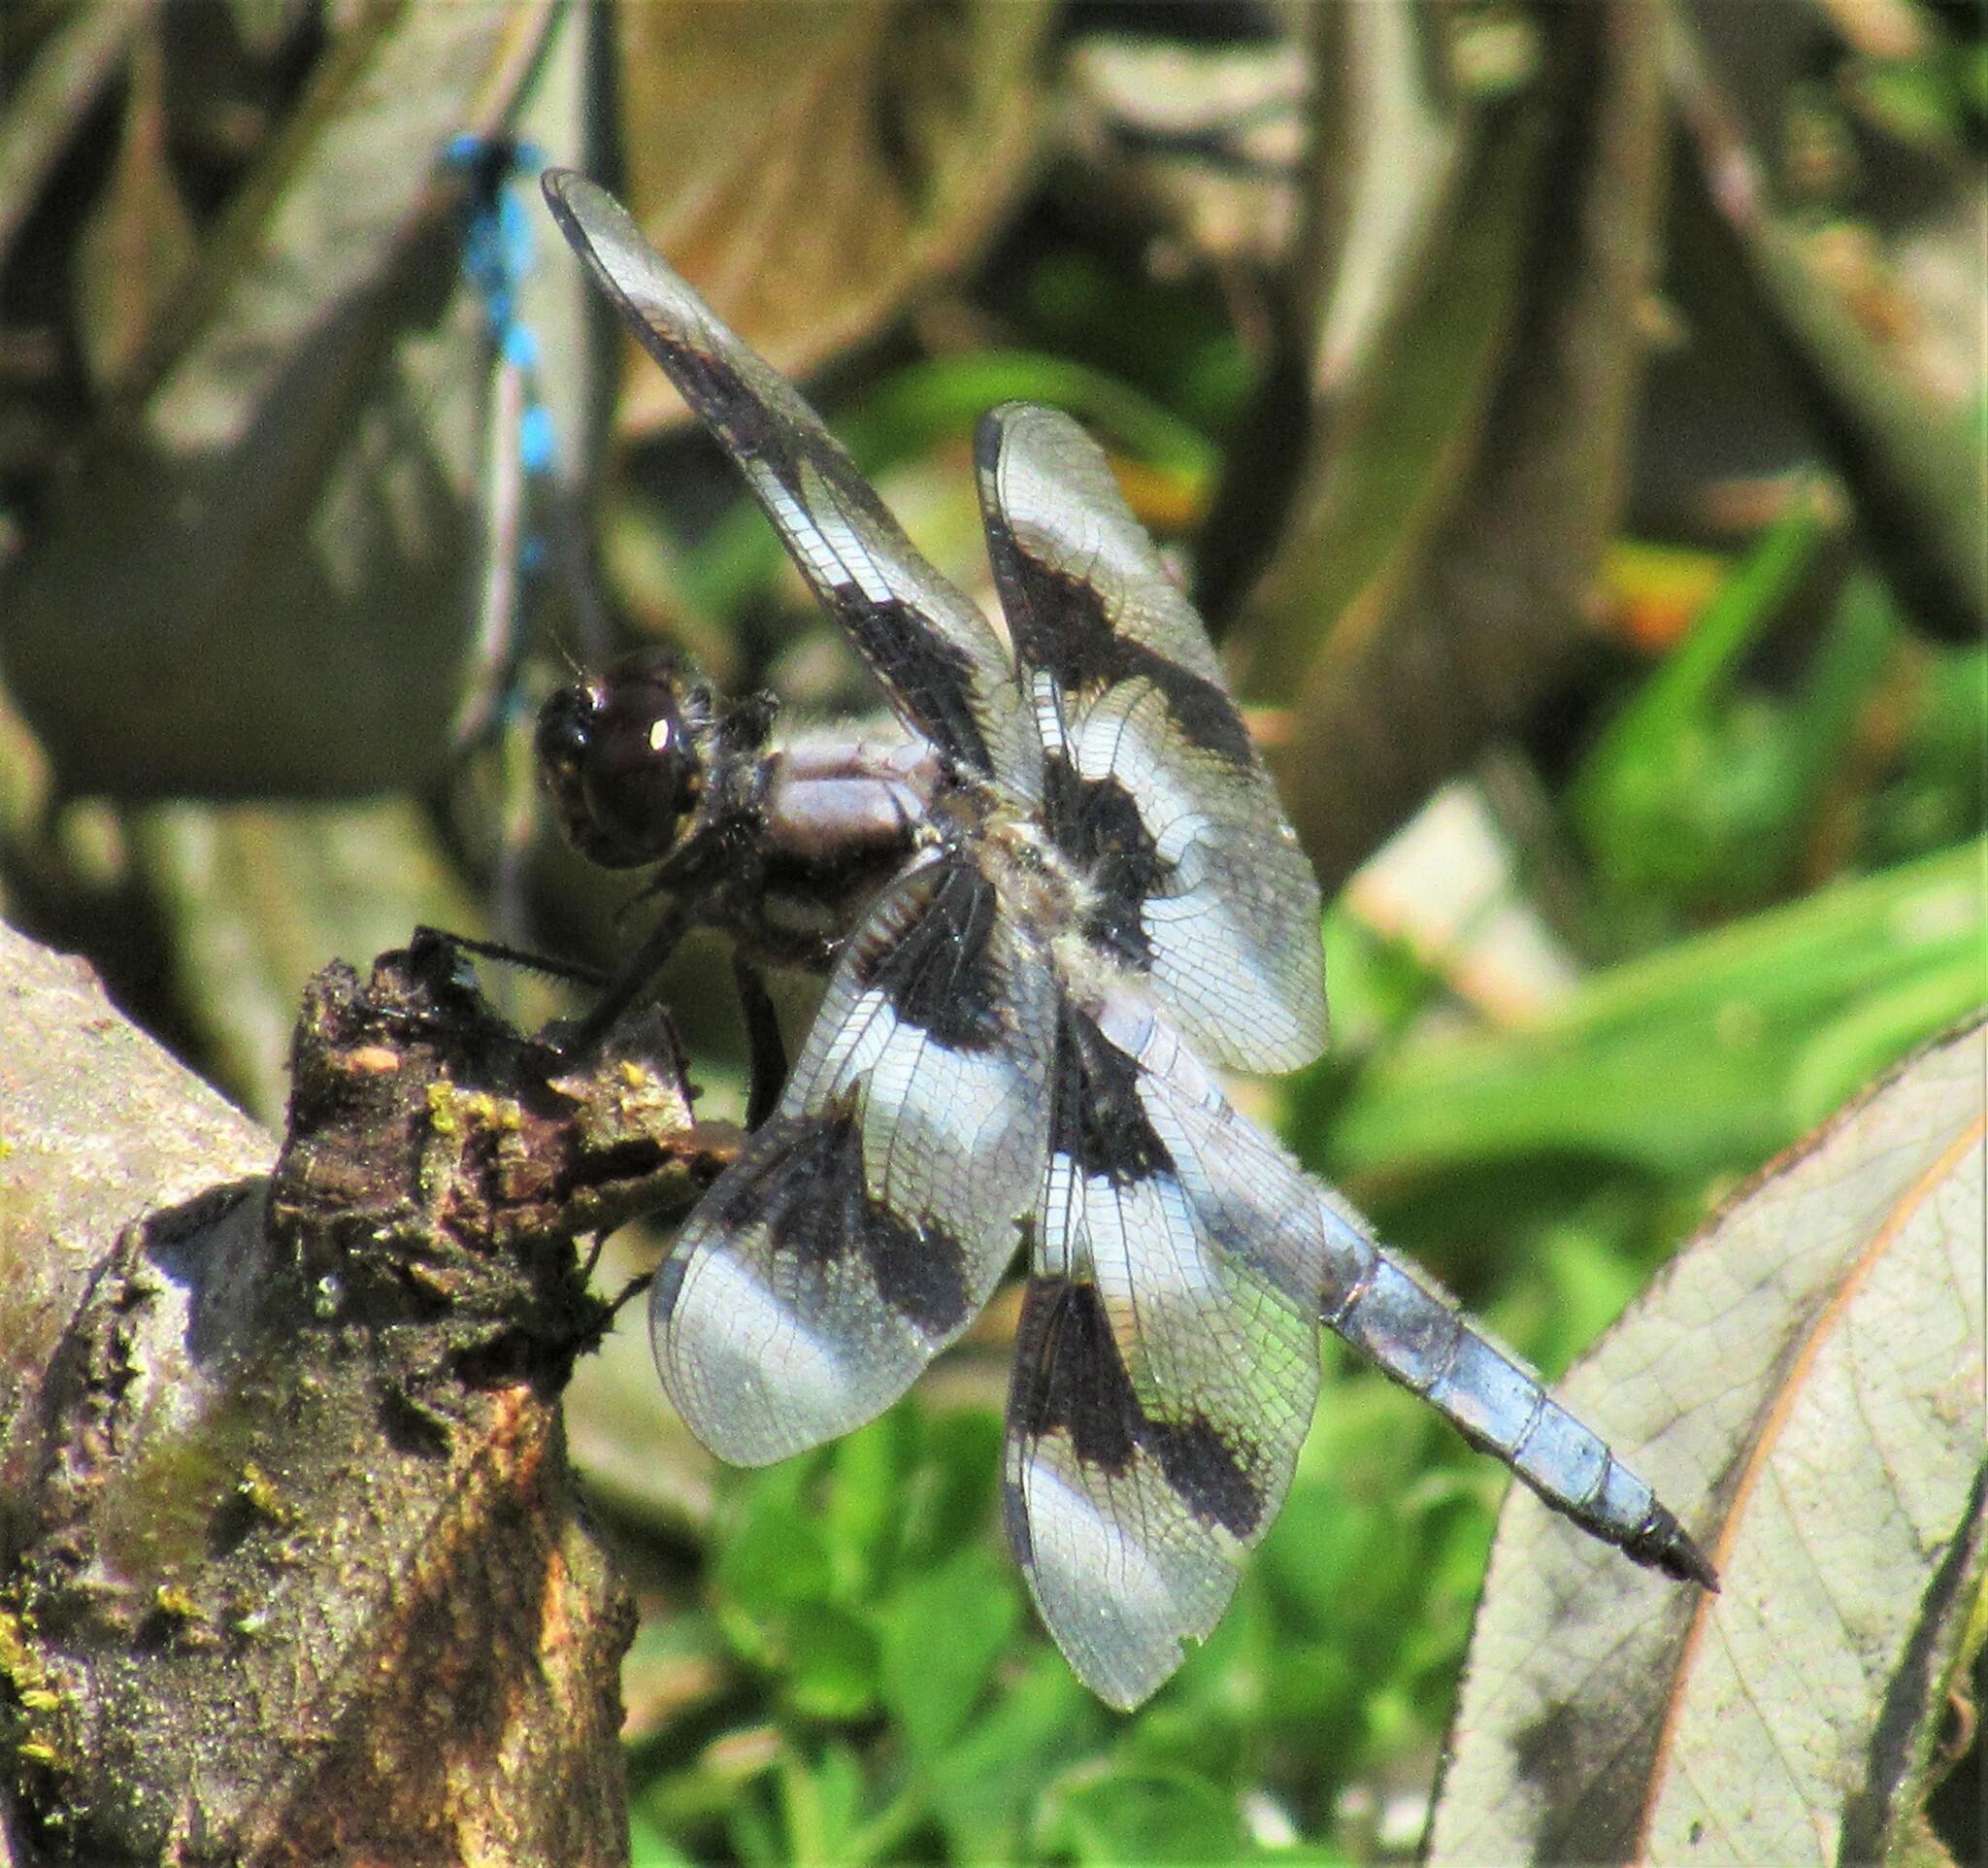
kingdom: Animalia
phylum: Arthropoda
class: Insecta
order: Odonata
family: Libellulidae
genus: Libellula
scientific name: Libellula forensis
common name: Eight-spotted skimmer
